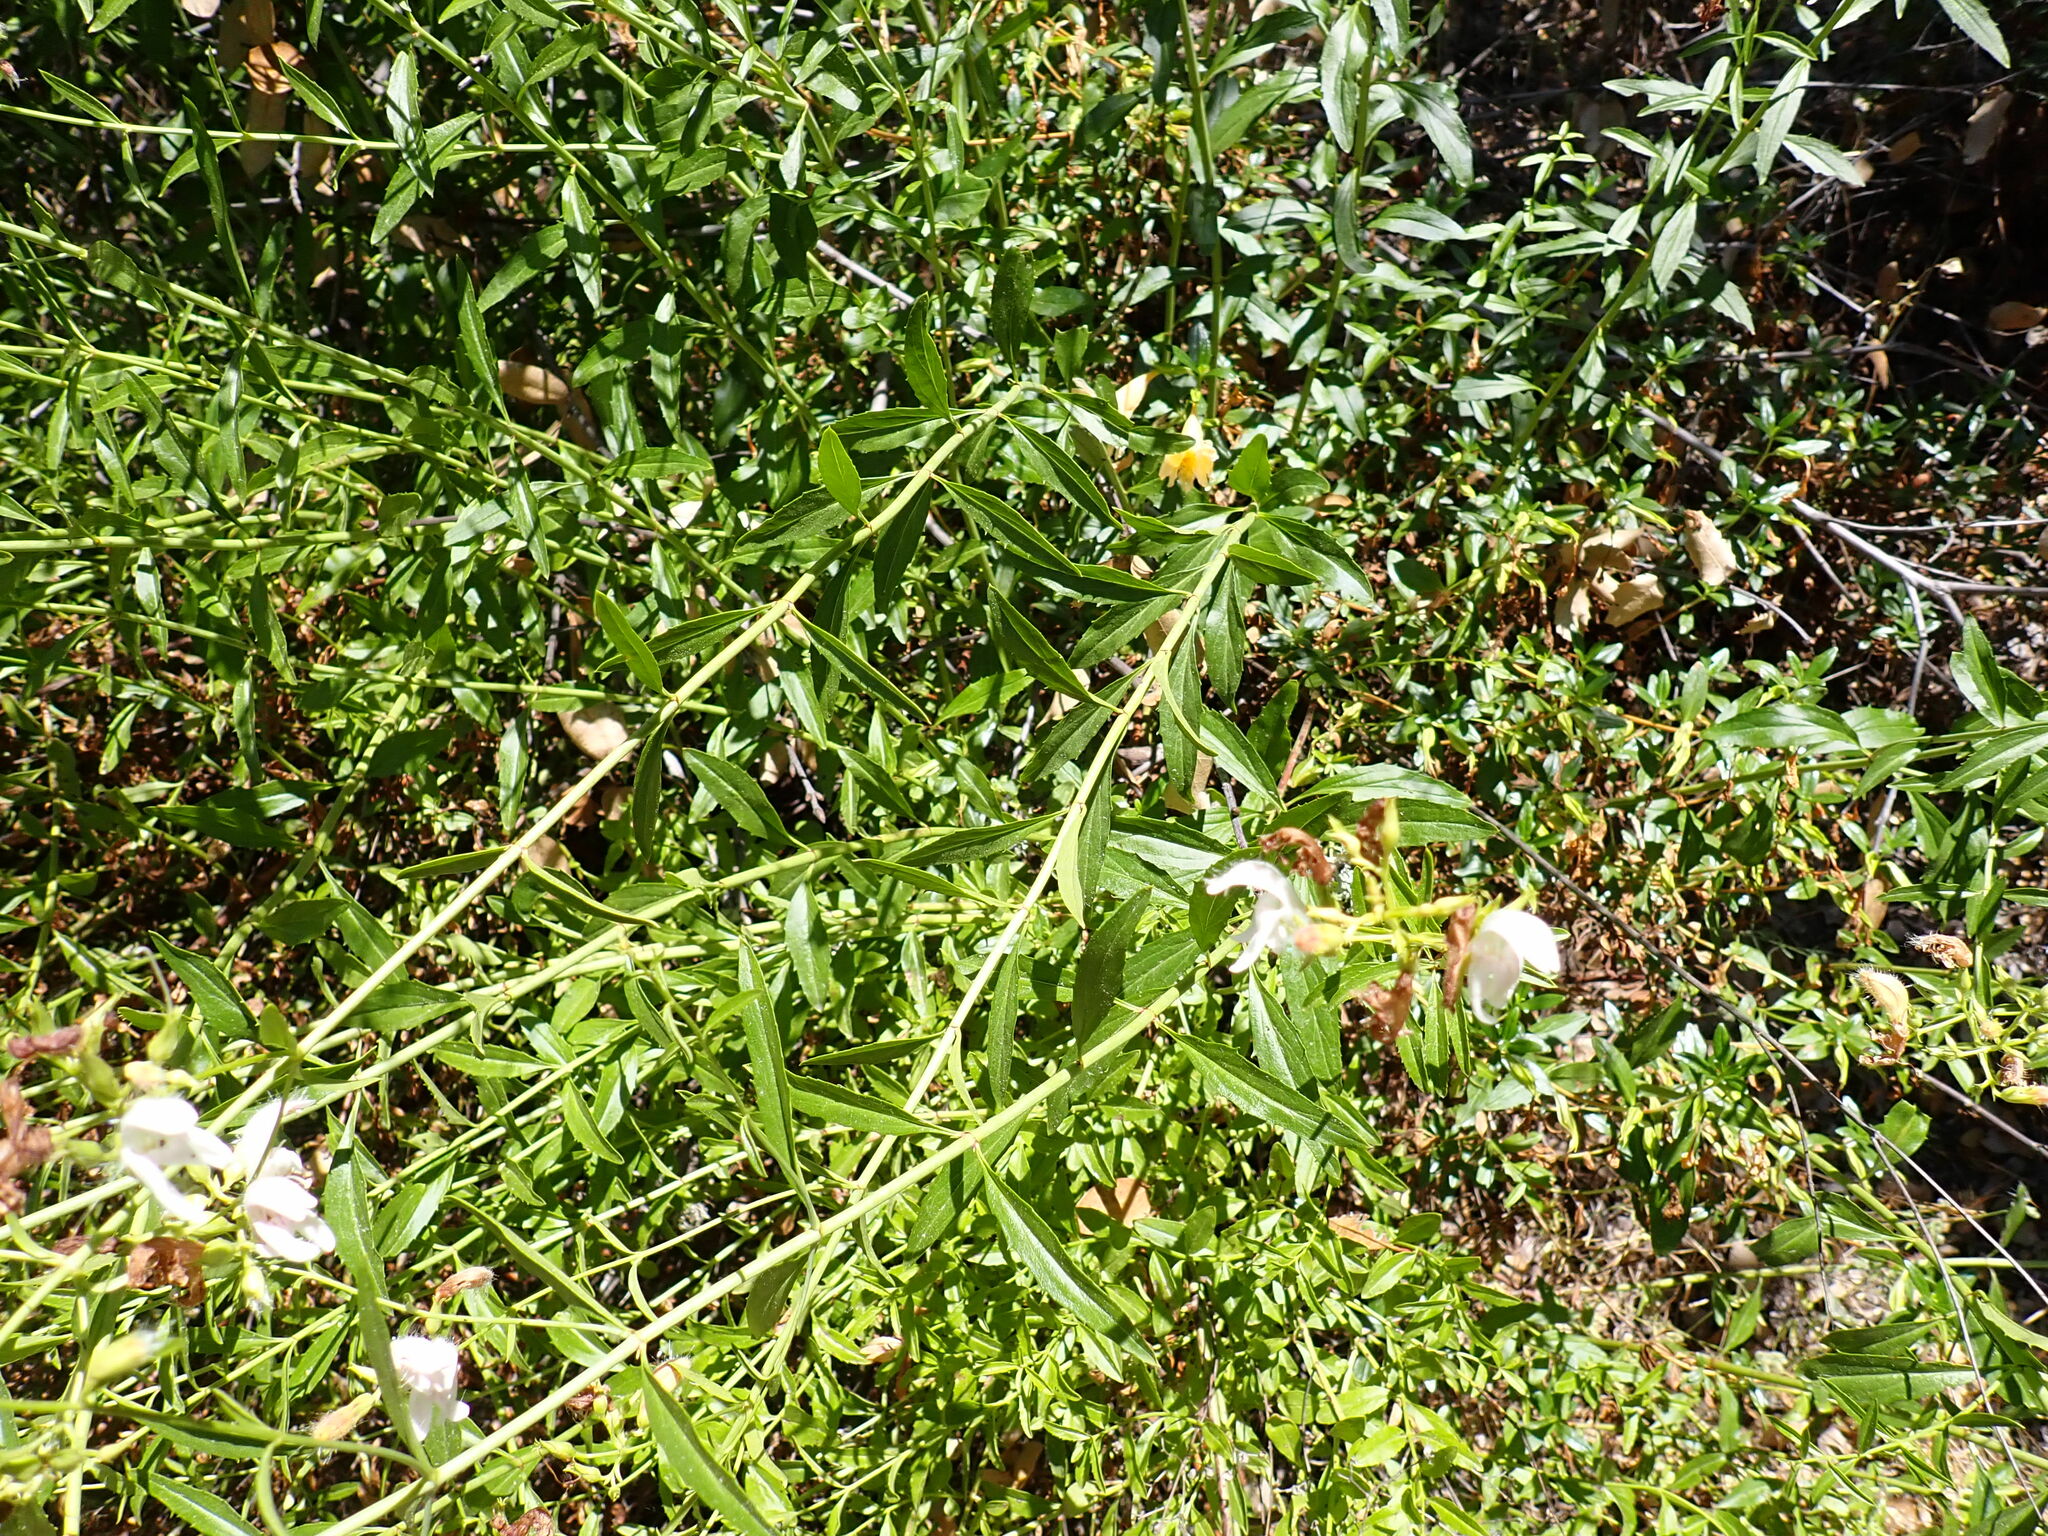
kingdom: Plantae
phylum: Tracheophyta
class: Magnoliopsida
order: Lamiales
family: Plantaginaceae
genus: Keckiella
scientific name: Keckiella breviflora
